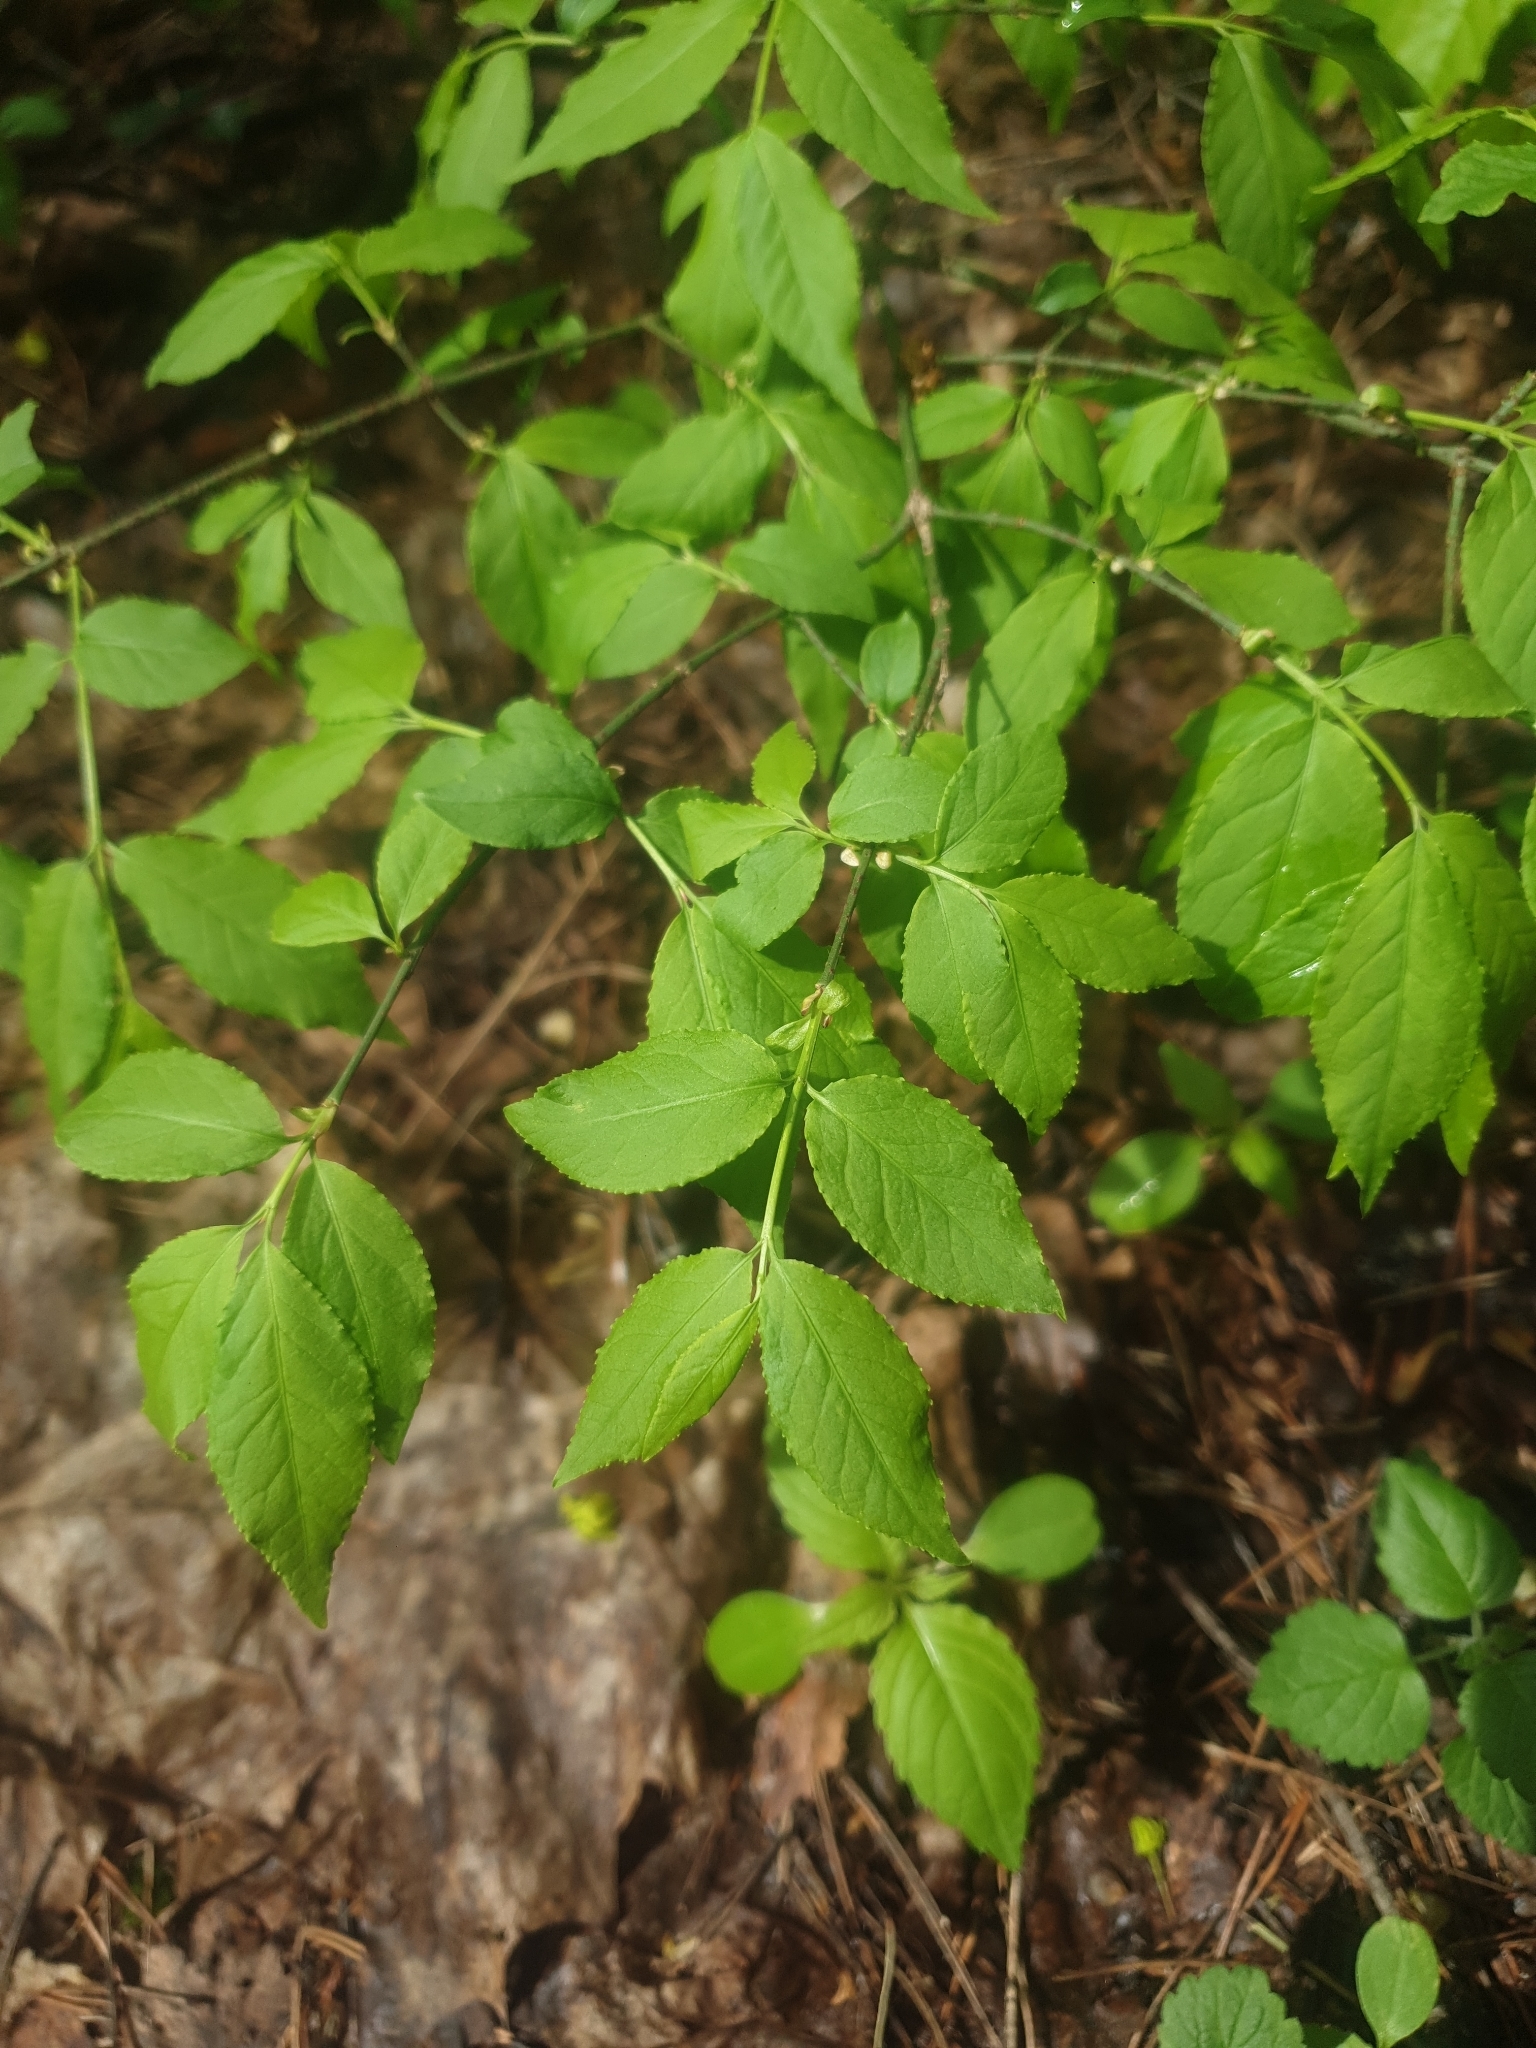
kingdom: Plantae
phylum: Tracheophyta
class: Magnoliopsida
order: Celastrales
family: Celastraceae
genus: Euonymus
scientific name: Euonymus verrucosus
